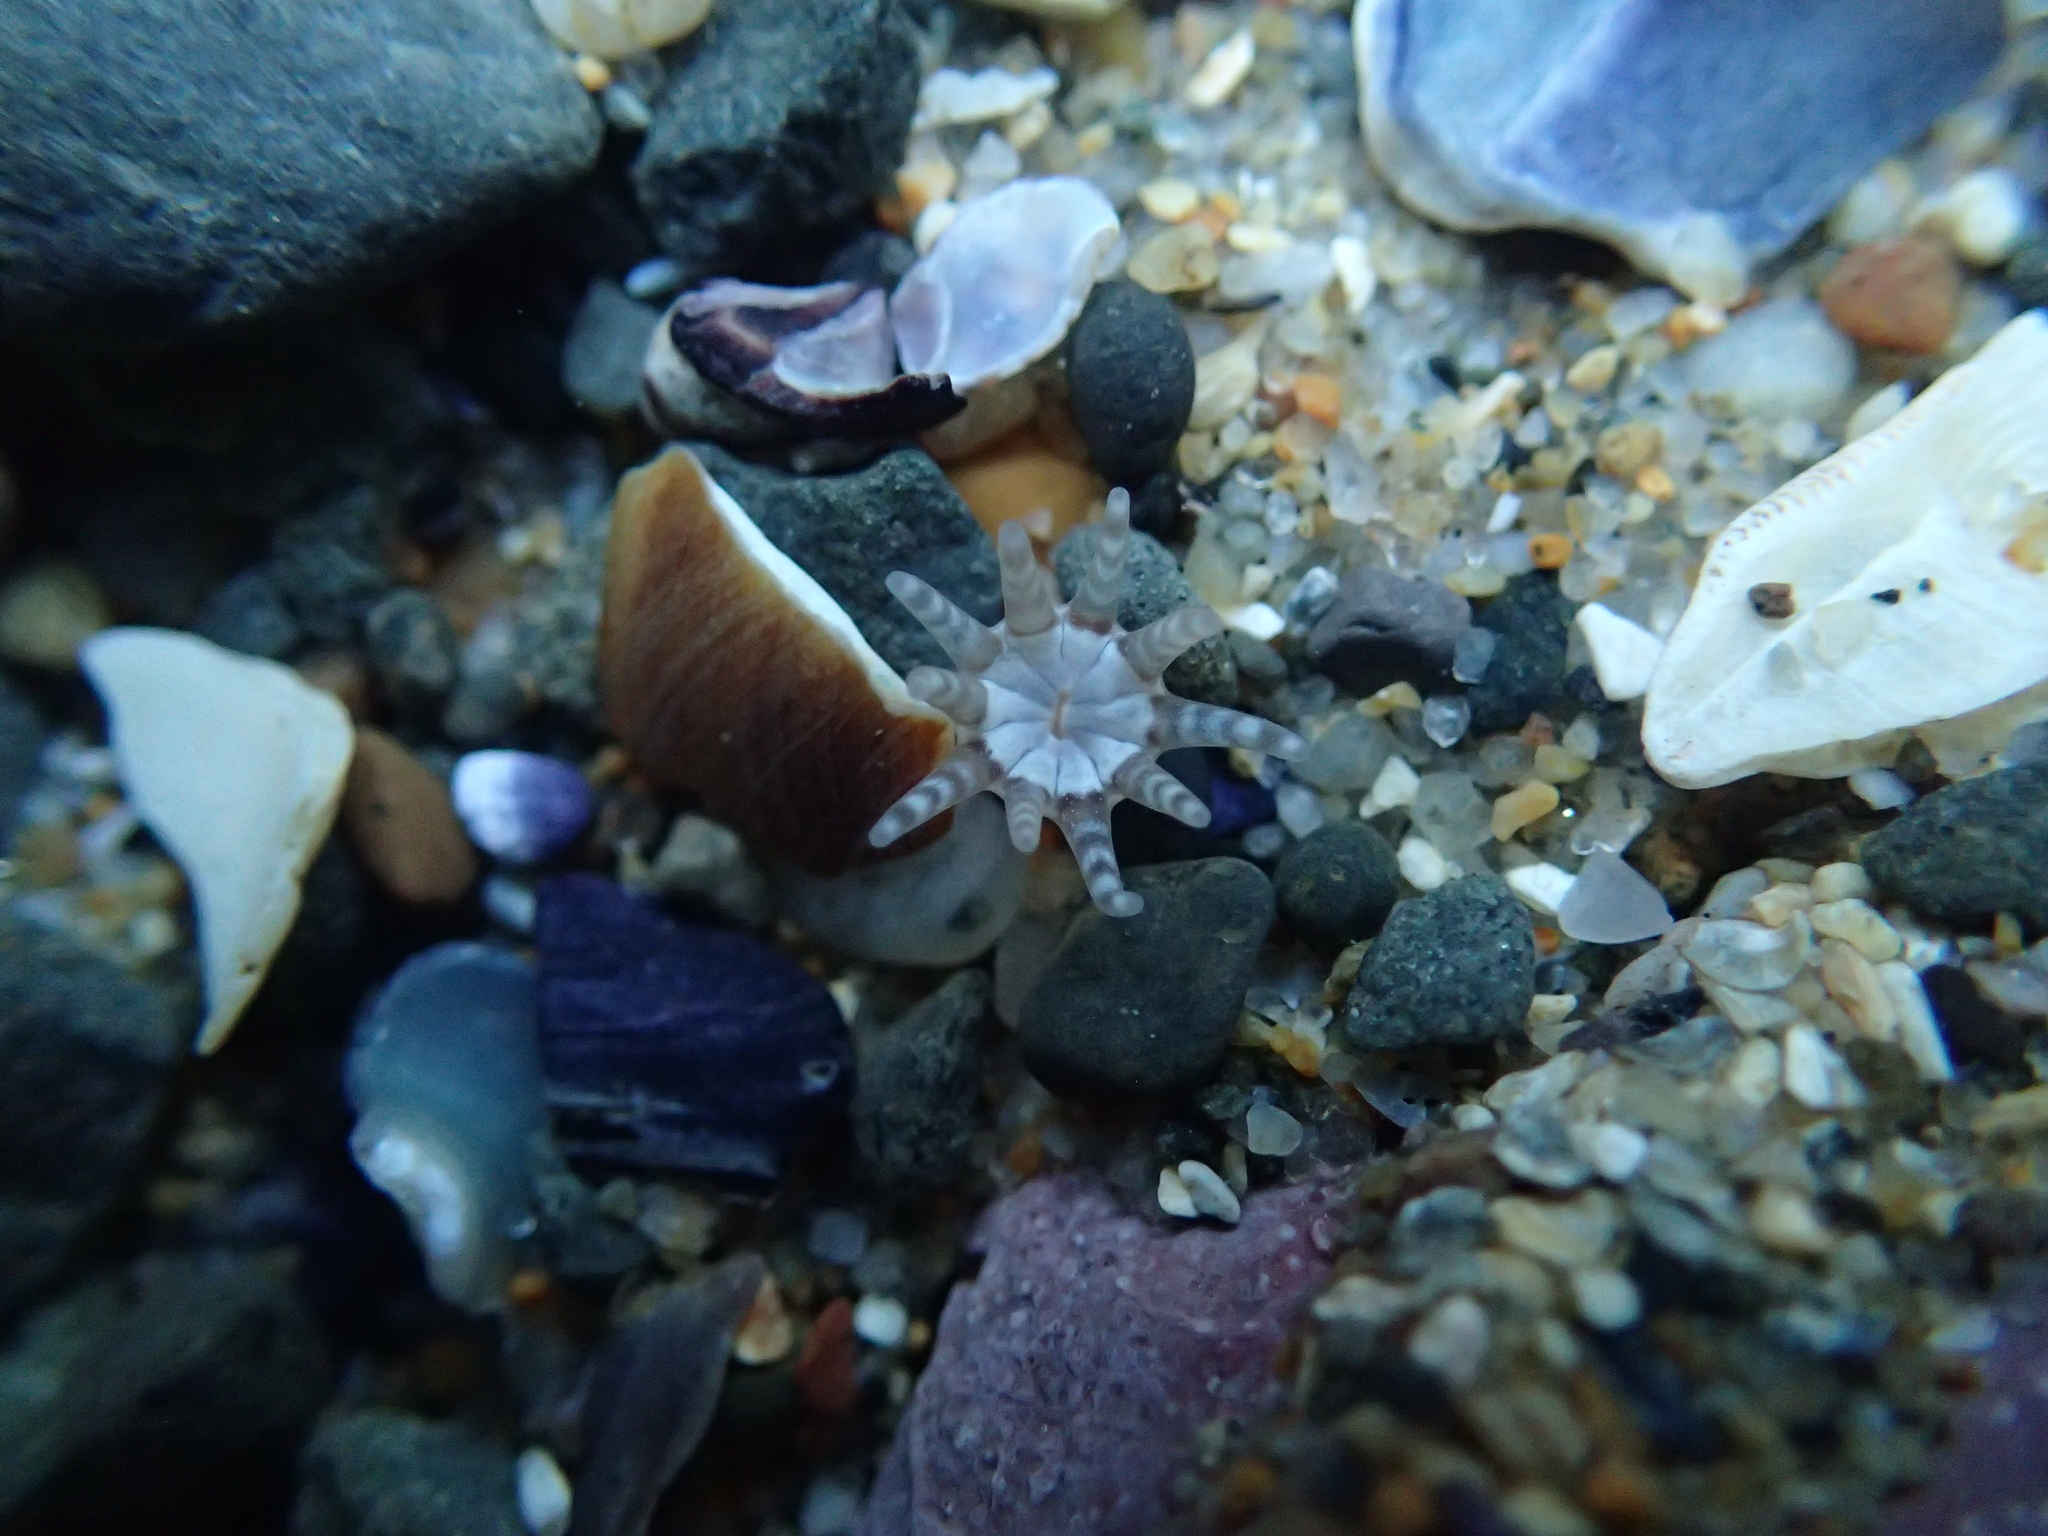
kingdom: Animalia
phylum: Cnidaria
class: Anthozoa
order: Actiniaria
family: Halcampidae
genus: Halcampa
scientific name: Halcampa decemtentaculata
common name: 10-tentacle burrowing anemone
